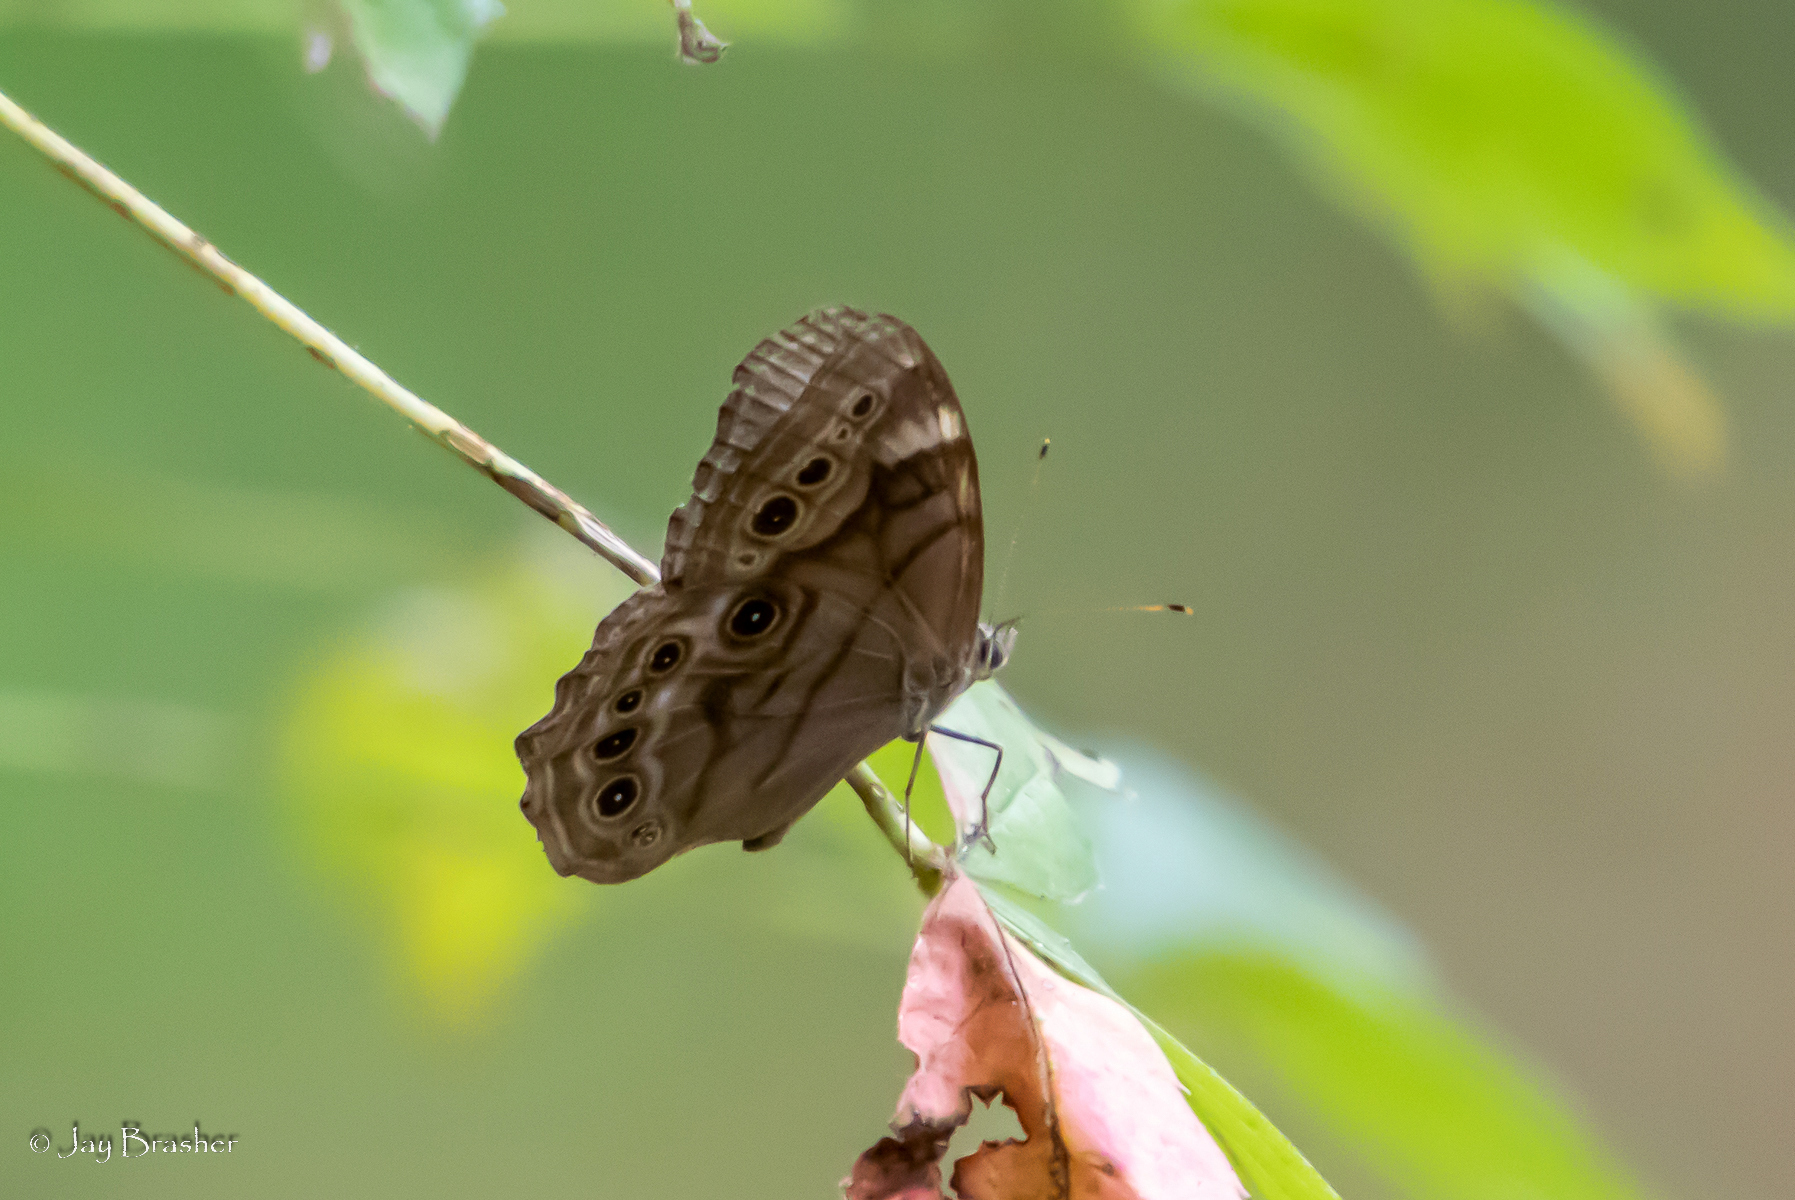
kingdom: Animalia
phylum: Arthropoda
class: Insecta
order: Lepidoptera
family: Nymphalidae
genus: Lethe
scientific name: Lethe anthedon
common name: Northern pearly-eye
